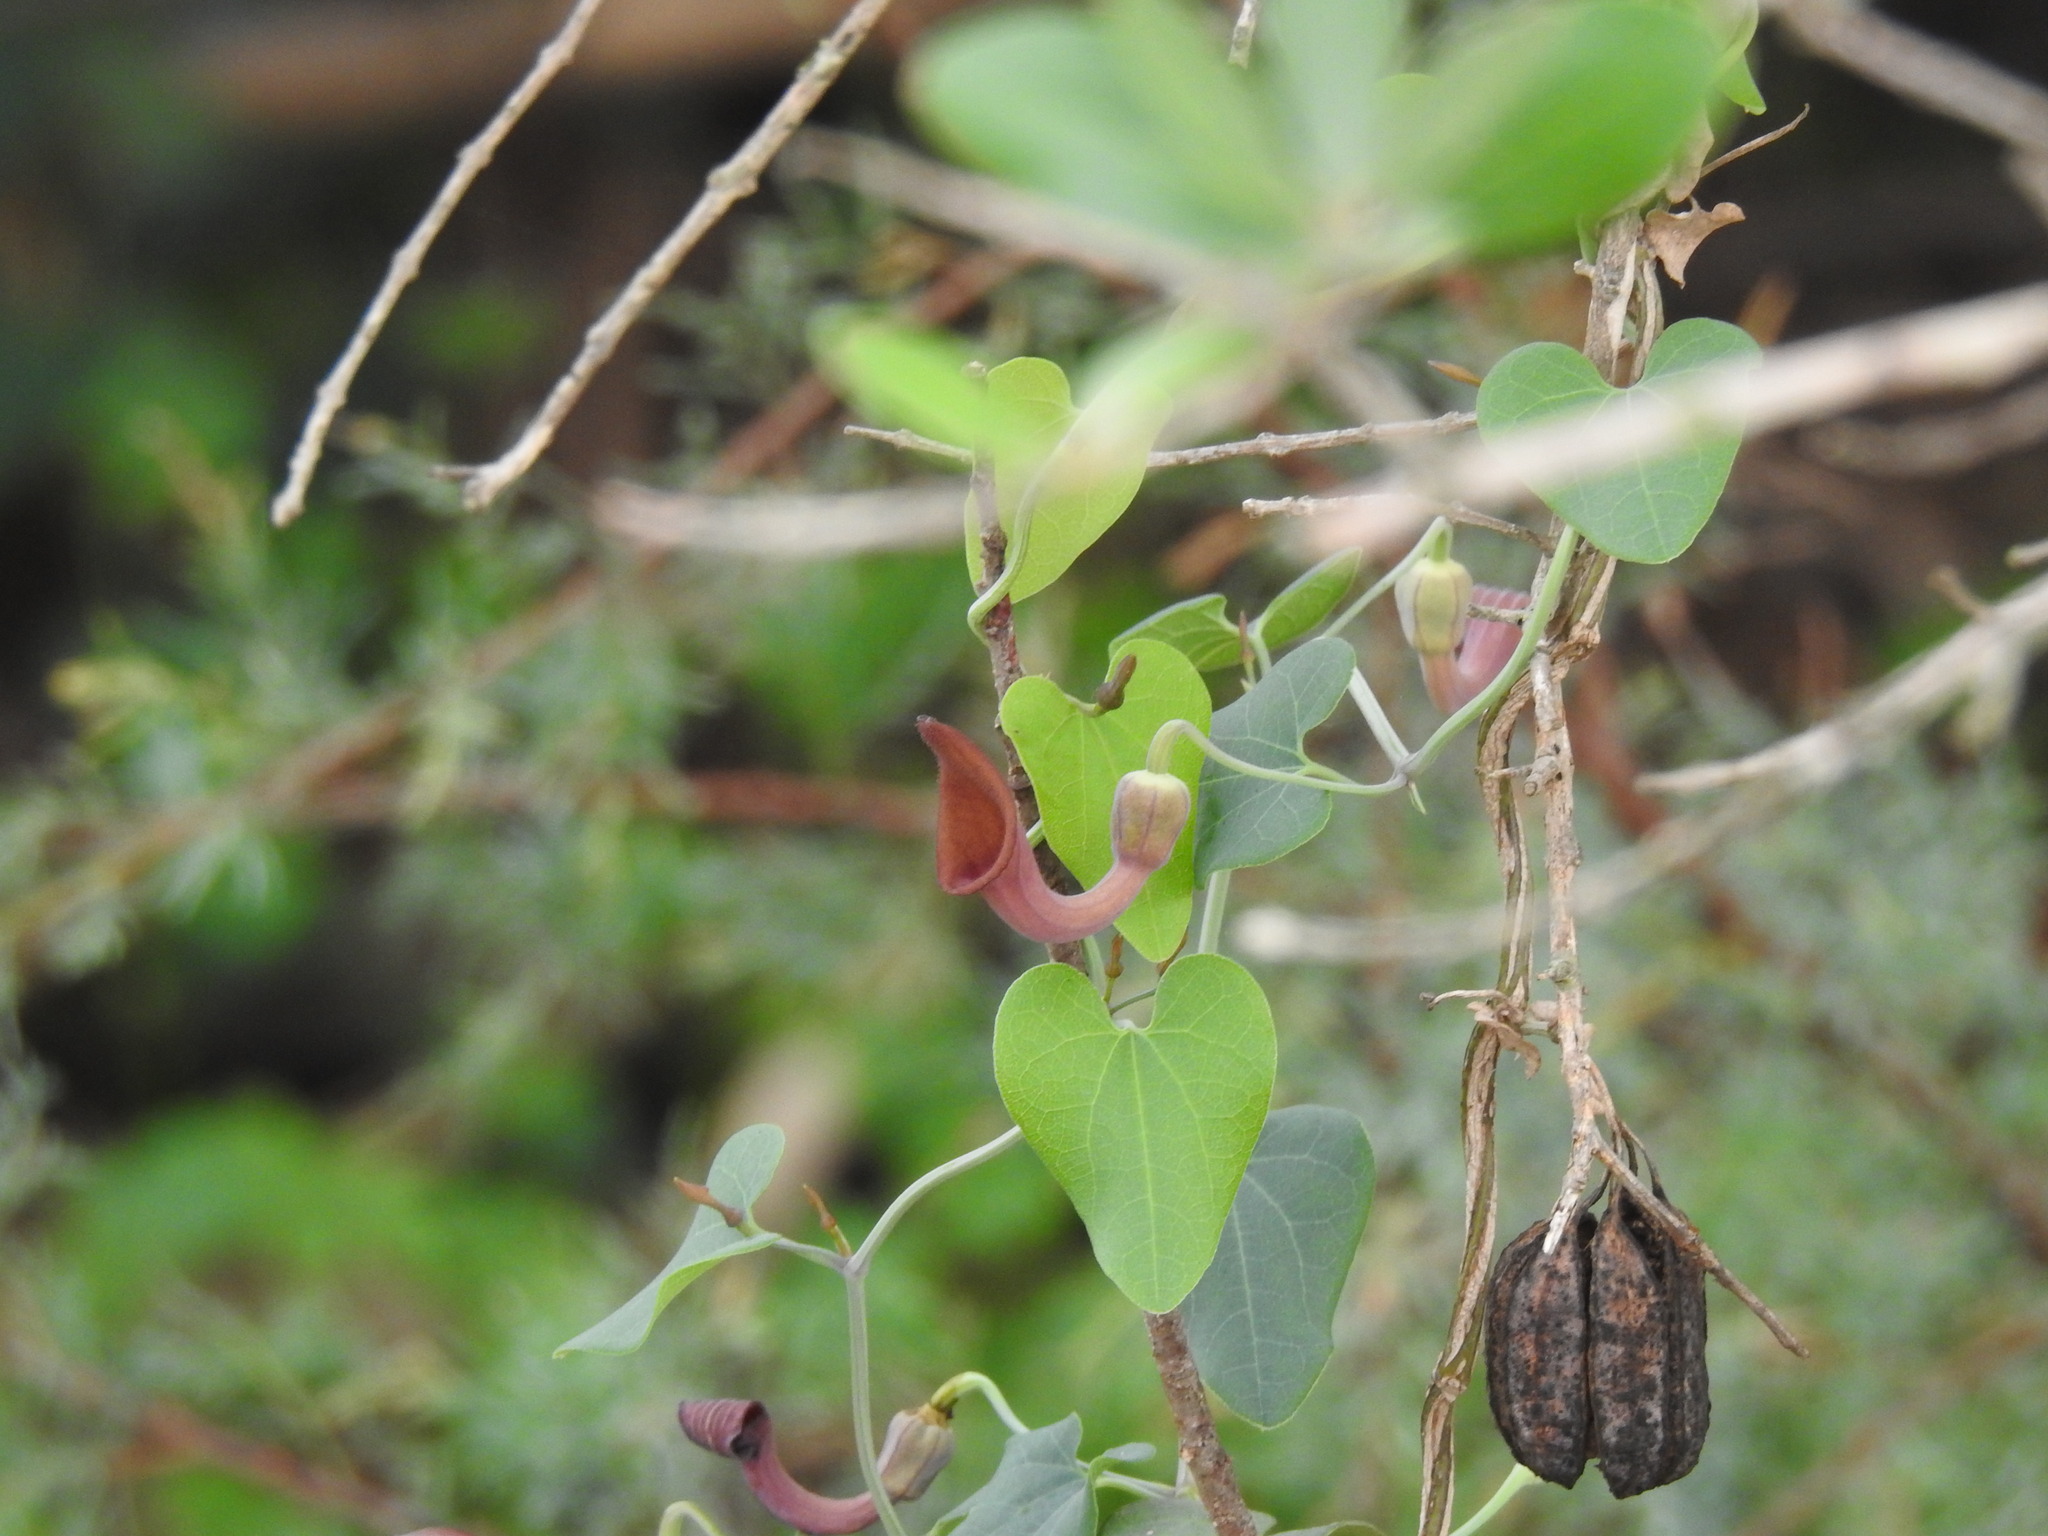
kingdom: Plantae
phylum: Tracheophyta
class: Magnoliopsida
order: Piperales
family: Aristolochiaceae
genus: Aristolochia
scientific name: Aristolochia baetica
